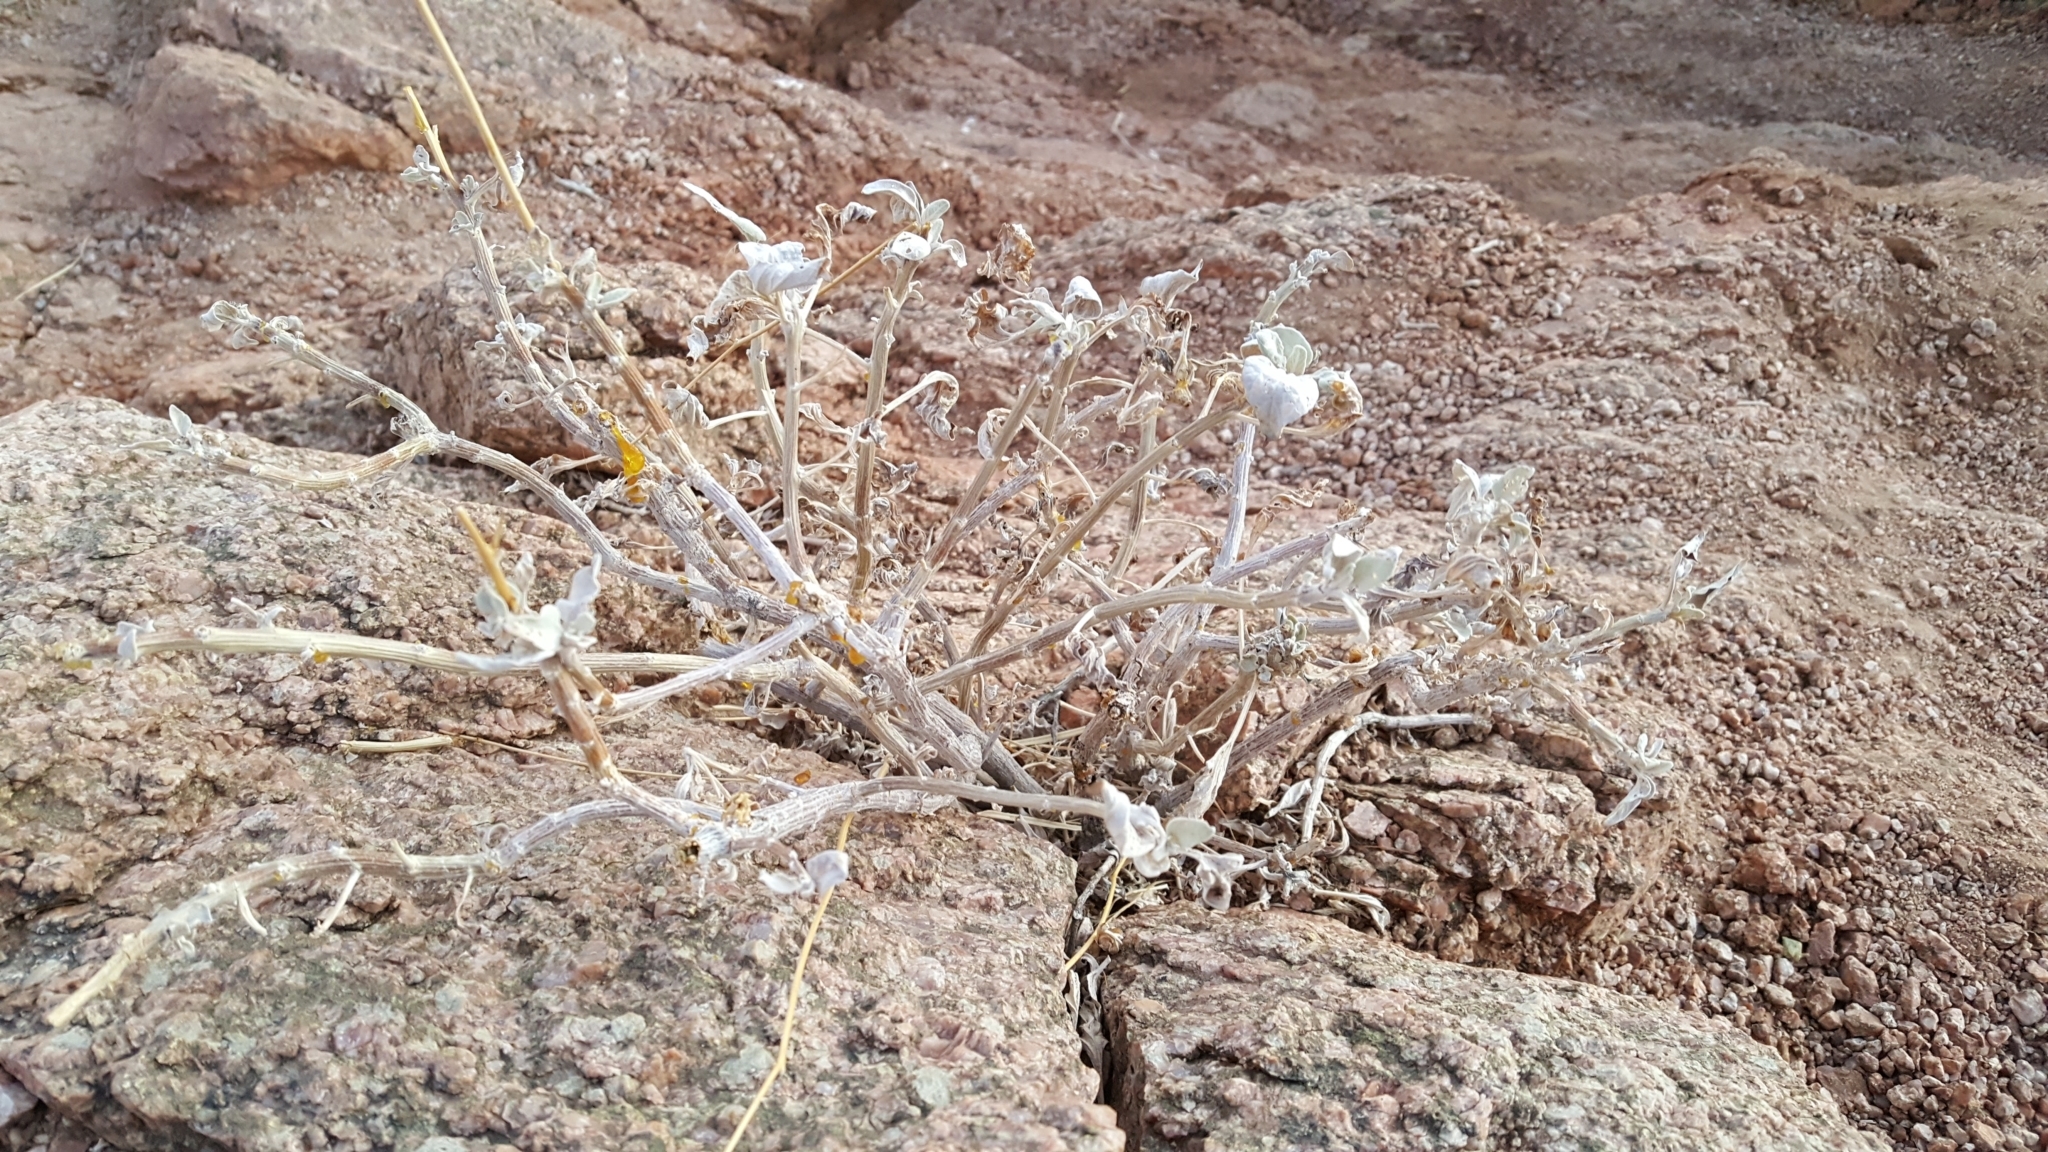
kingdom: Plantae
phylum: Tracheophyta
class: Magnoliopsida
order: Asterales
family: Asteraceae
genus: Encelia
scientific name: Encelia farinosa
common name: Brittlebush
